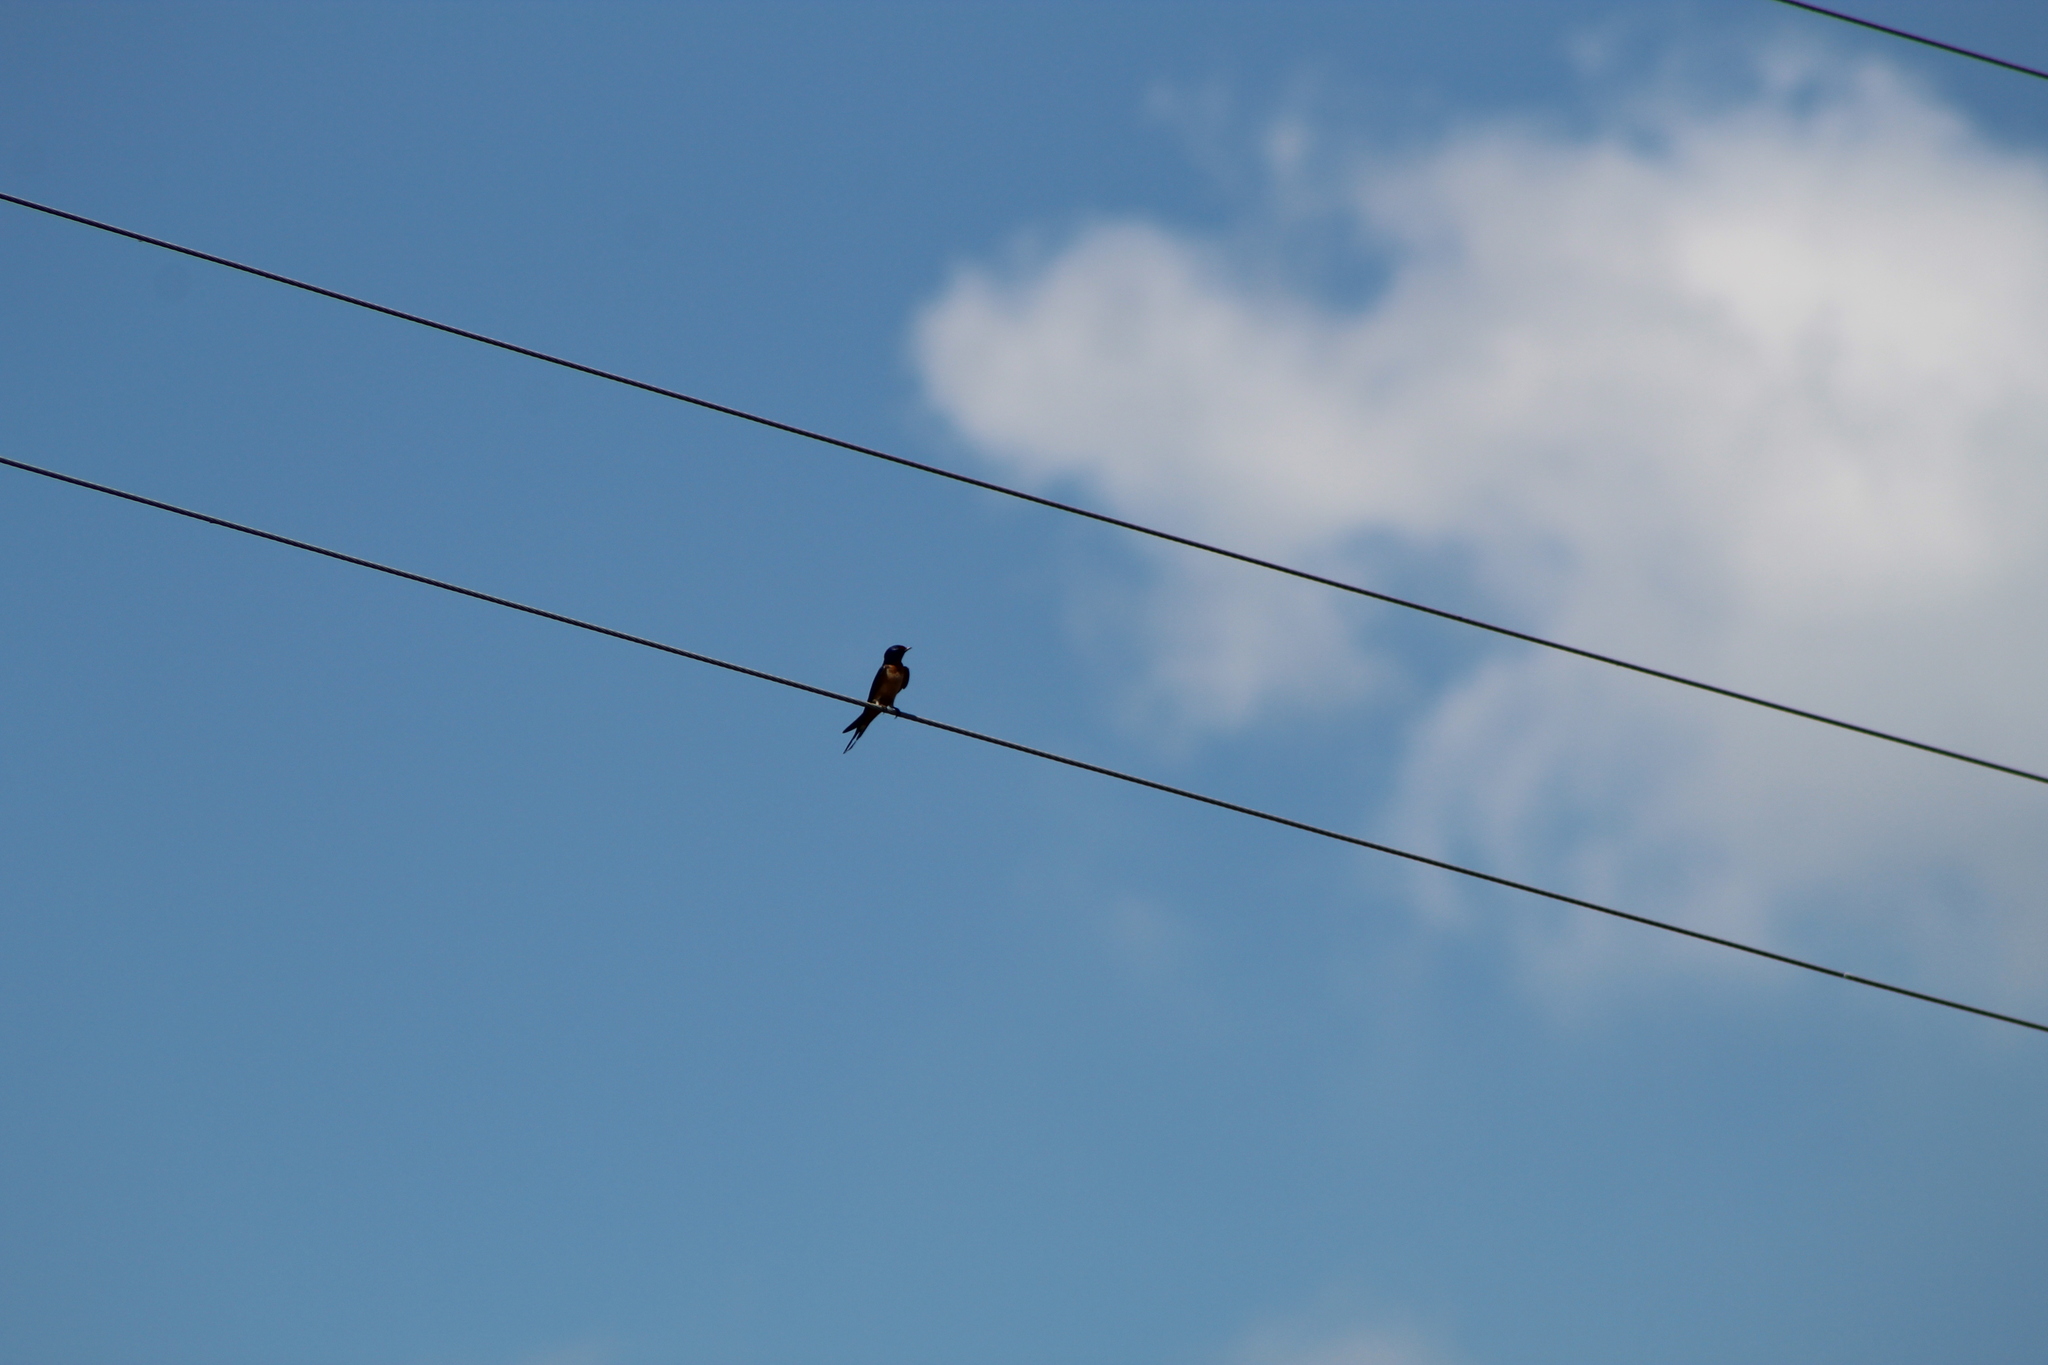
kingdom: Animalia
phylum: Chordata
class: Aves
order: Passeriformes
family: Hirundinidae
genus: Hirundo
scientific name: Hirundo rustica
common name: Barn swallow
